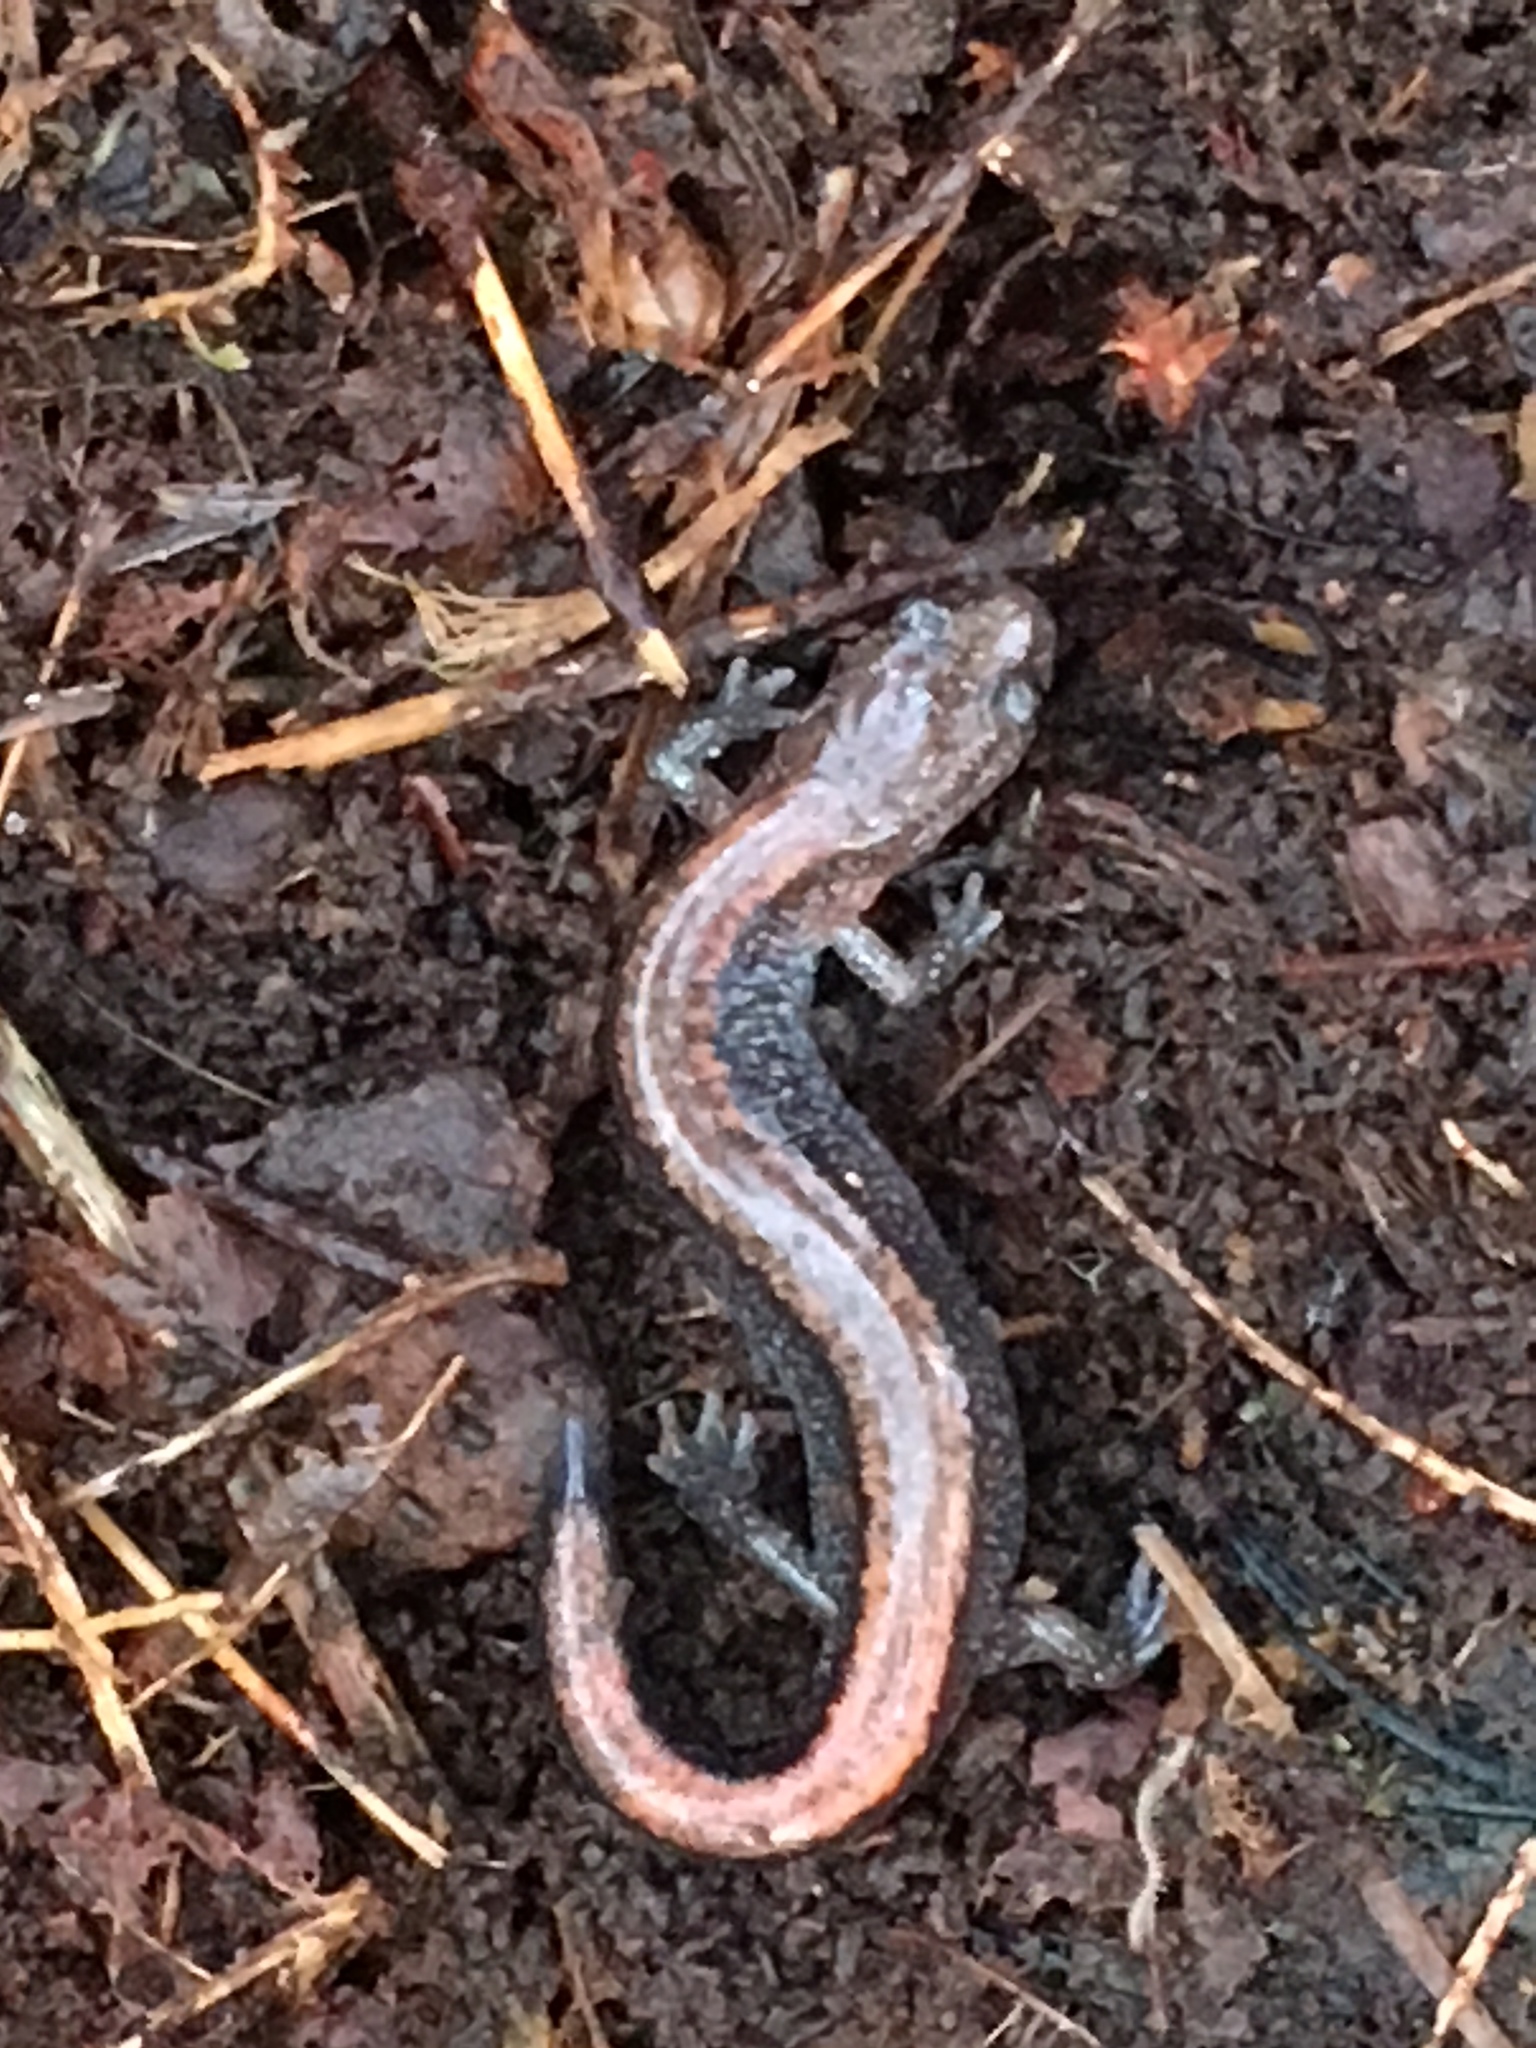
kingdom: Animalia
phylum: Chordata
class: Amphibia
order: Caudata
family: Plethodontidae
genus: Plethodon
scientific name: Plethodon cinereus
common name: Redback salamander
